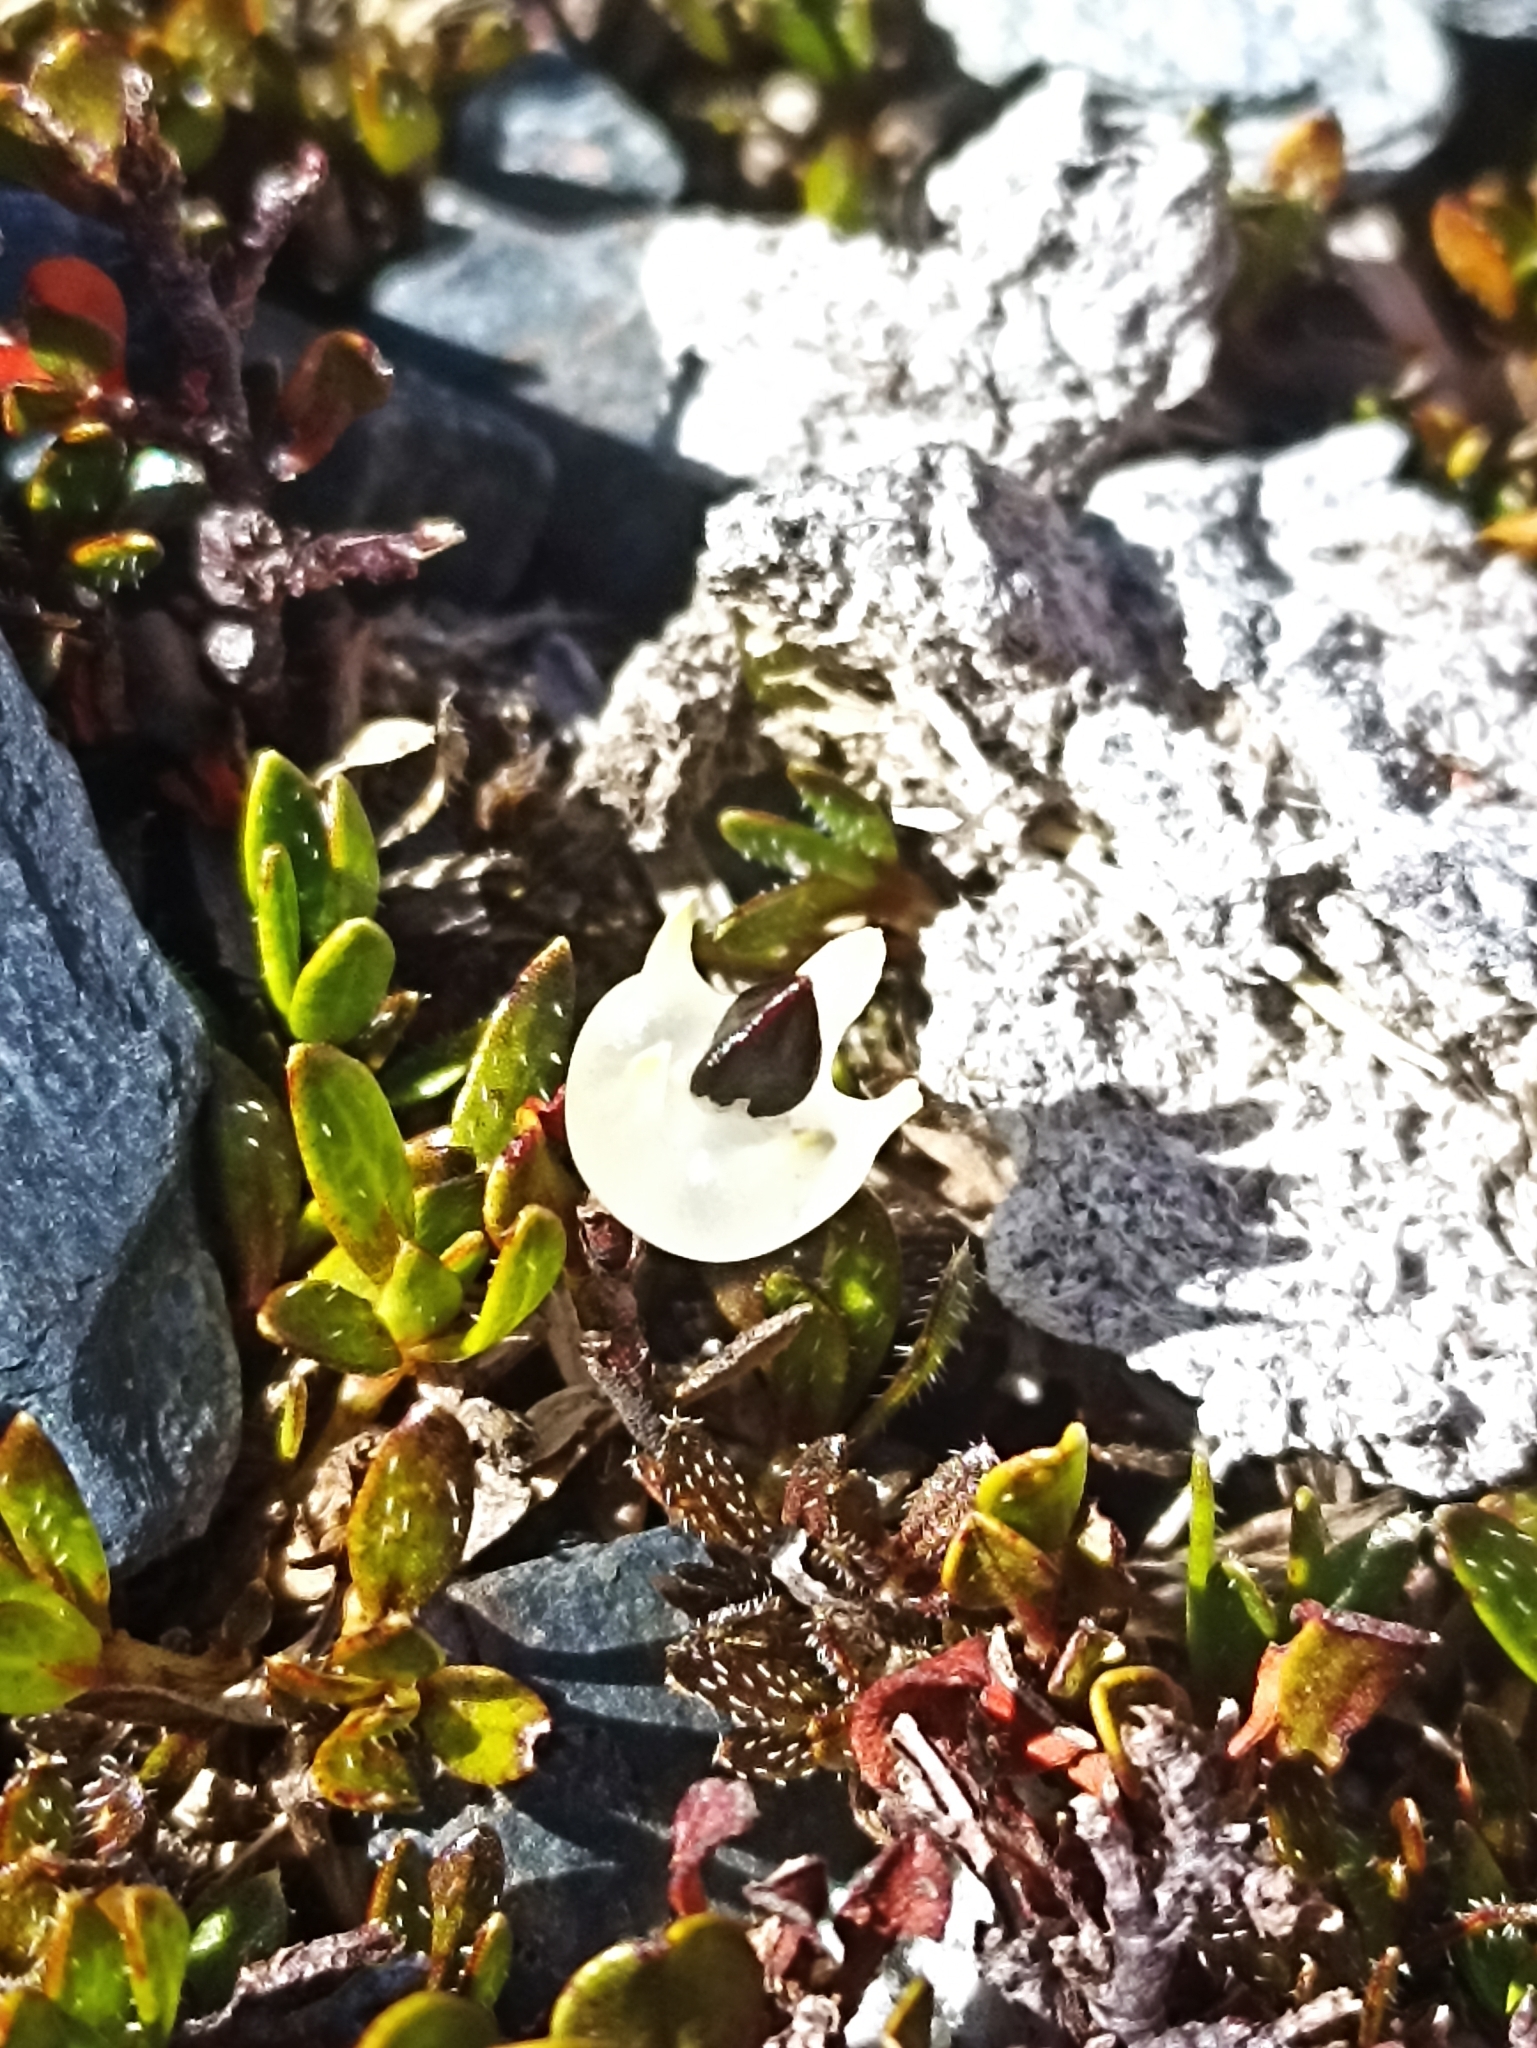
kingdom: Plantae
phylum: Tracheophyta
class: Magnoliopsida
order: Caryophyllales
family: Polygonaceae
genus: Muehlenbeckia
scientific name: Muehlenbeckia axillaris
